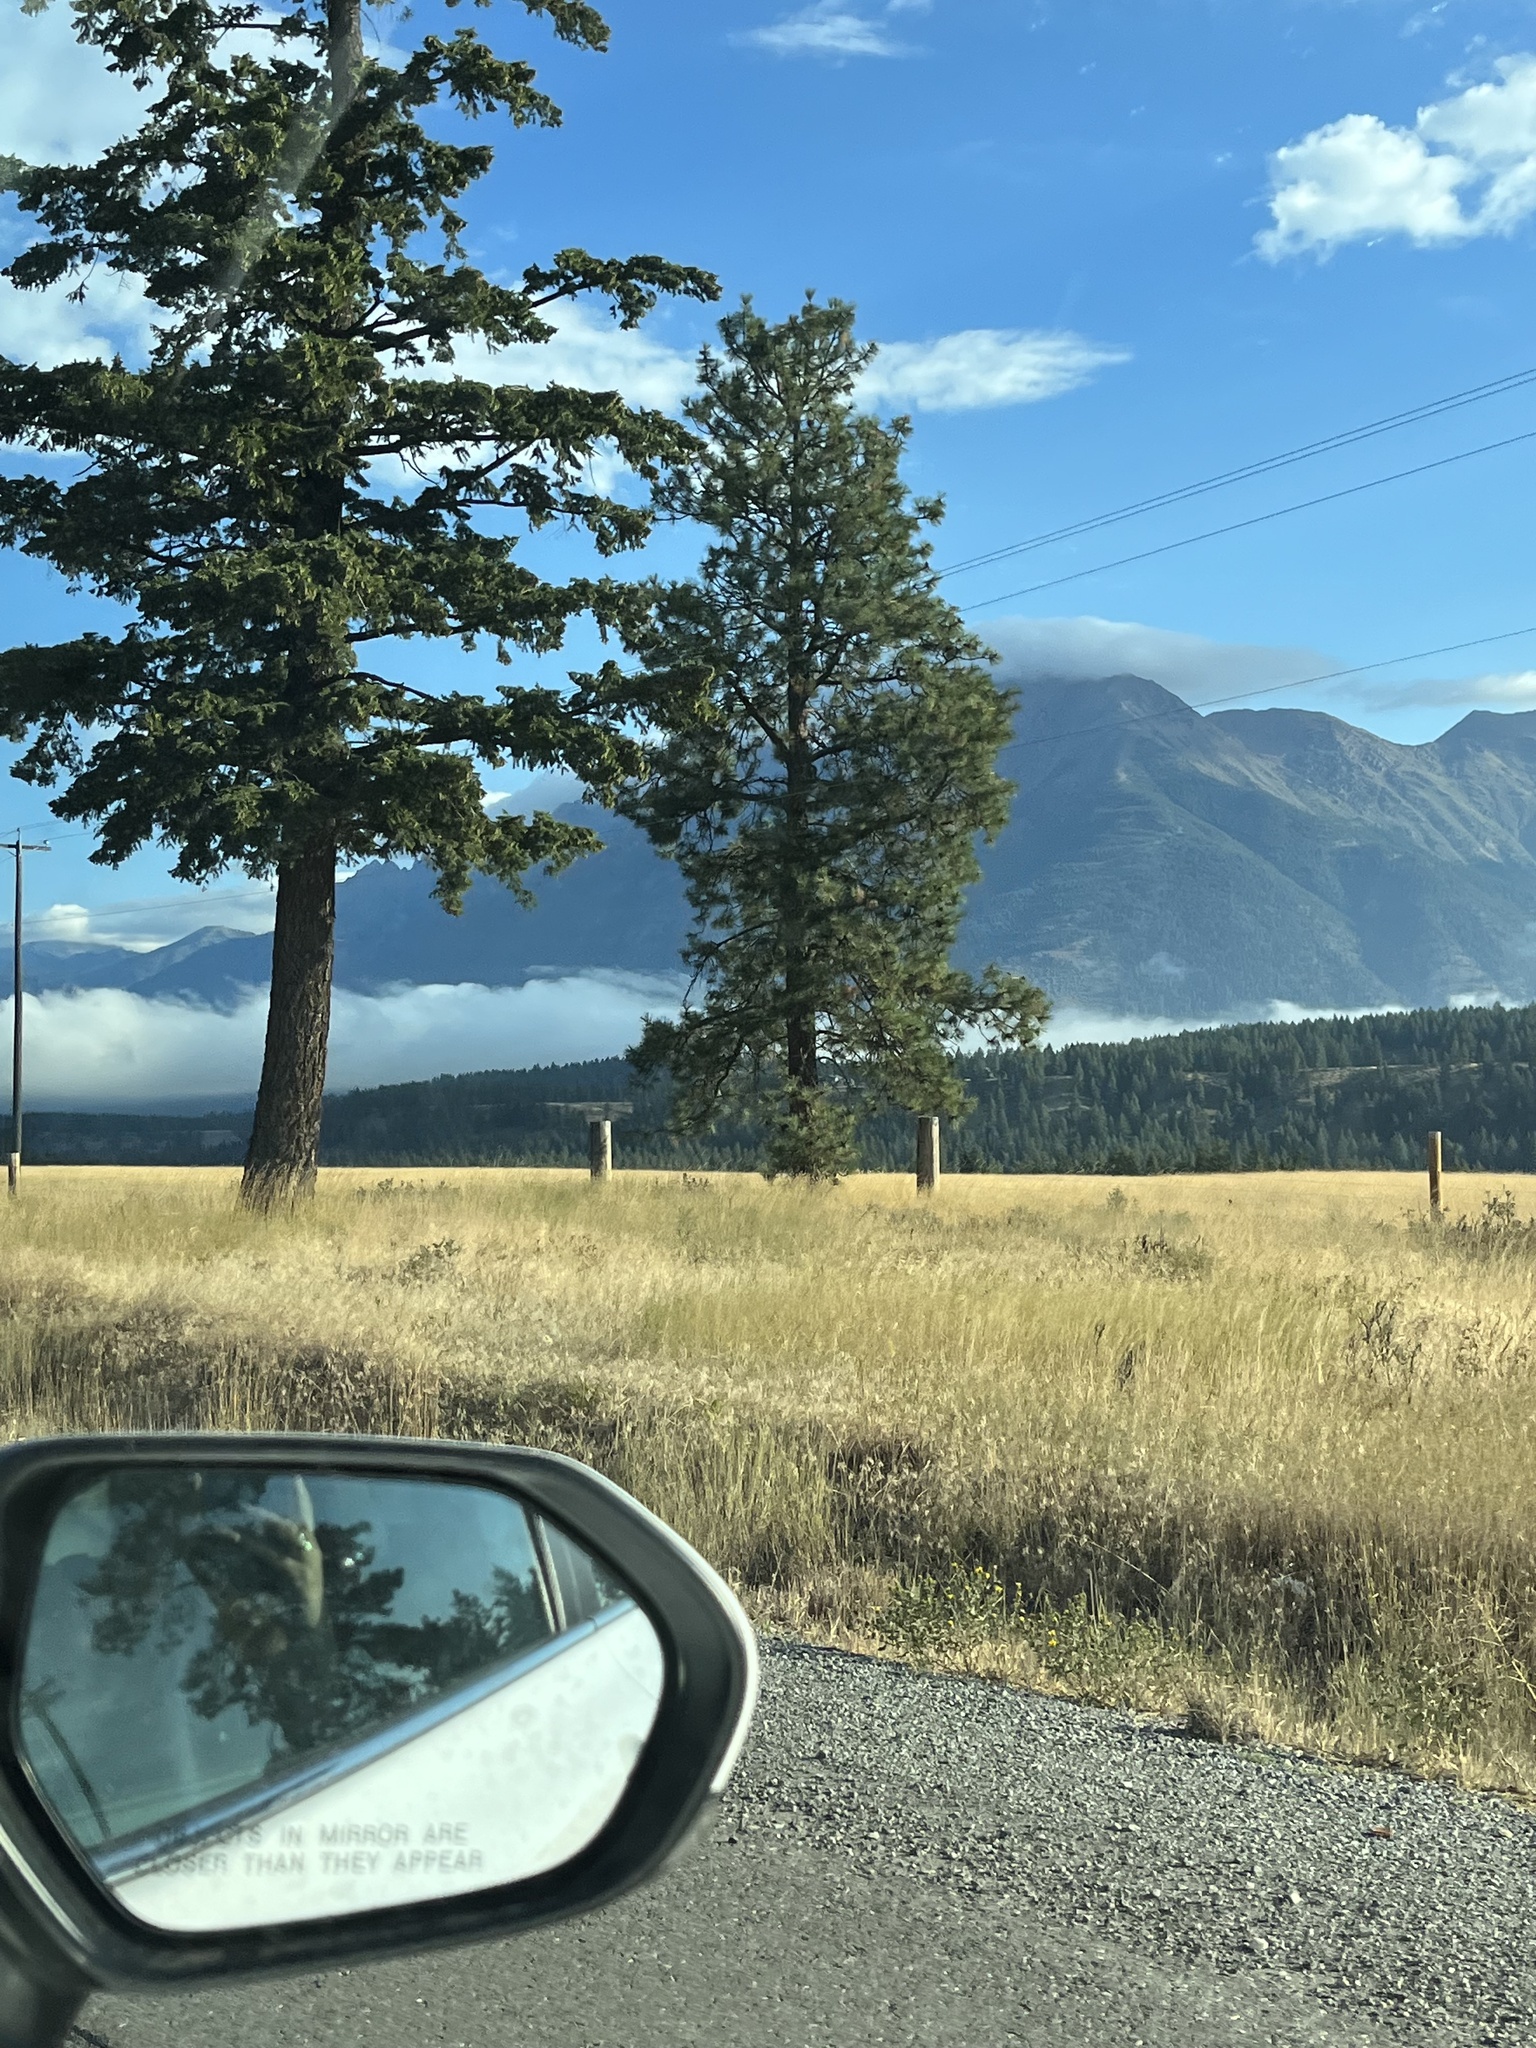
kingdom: Plantae
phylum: Tracheophyta
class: Pinopsida
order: Pinales
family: Pinaceae
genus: Pinus
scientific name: Pinus ponderosa
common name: Western yellow-pine
